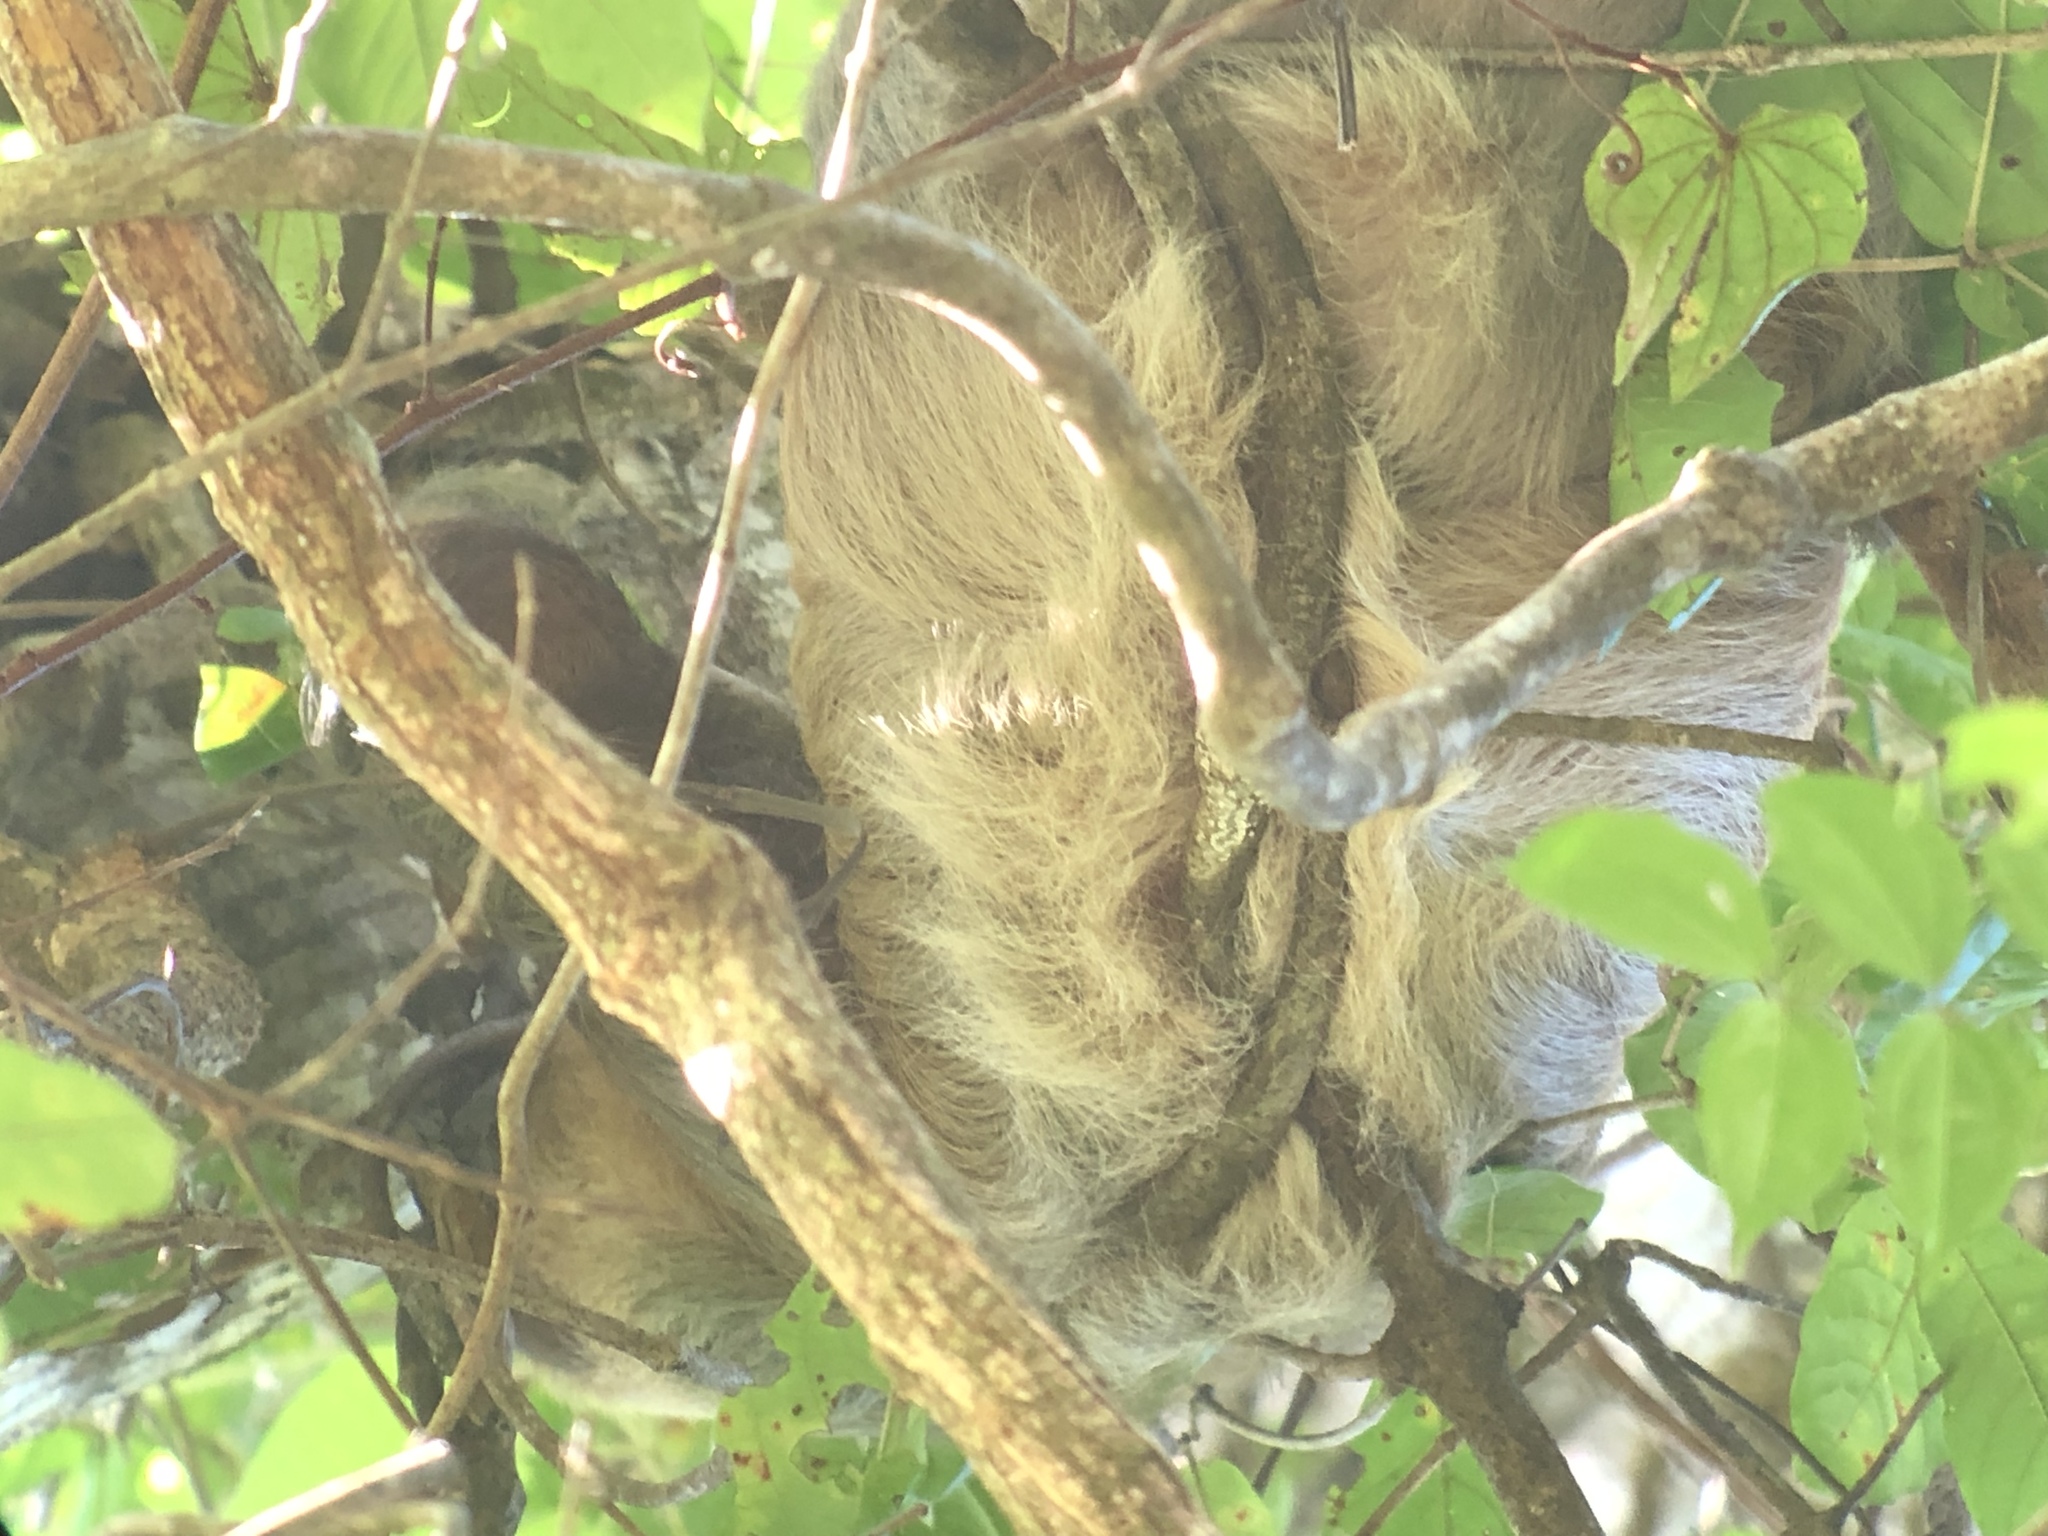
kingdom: Animalia
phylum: Chordata
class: Mammalia
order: Pilosa
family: Megalonychidae
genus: Choloepus
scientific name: Choloepus hoffmanni
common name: Hoffmann's two-toed sloth
